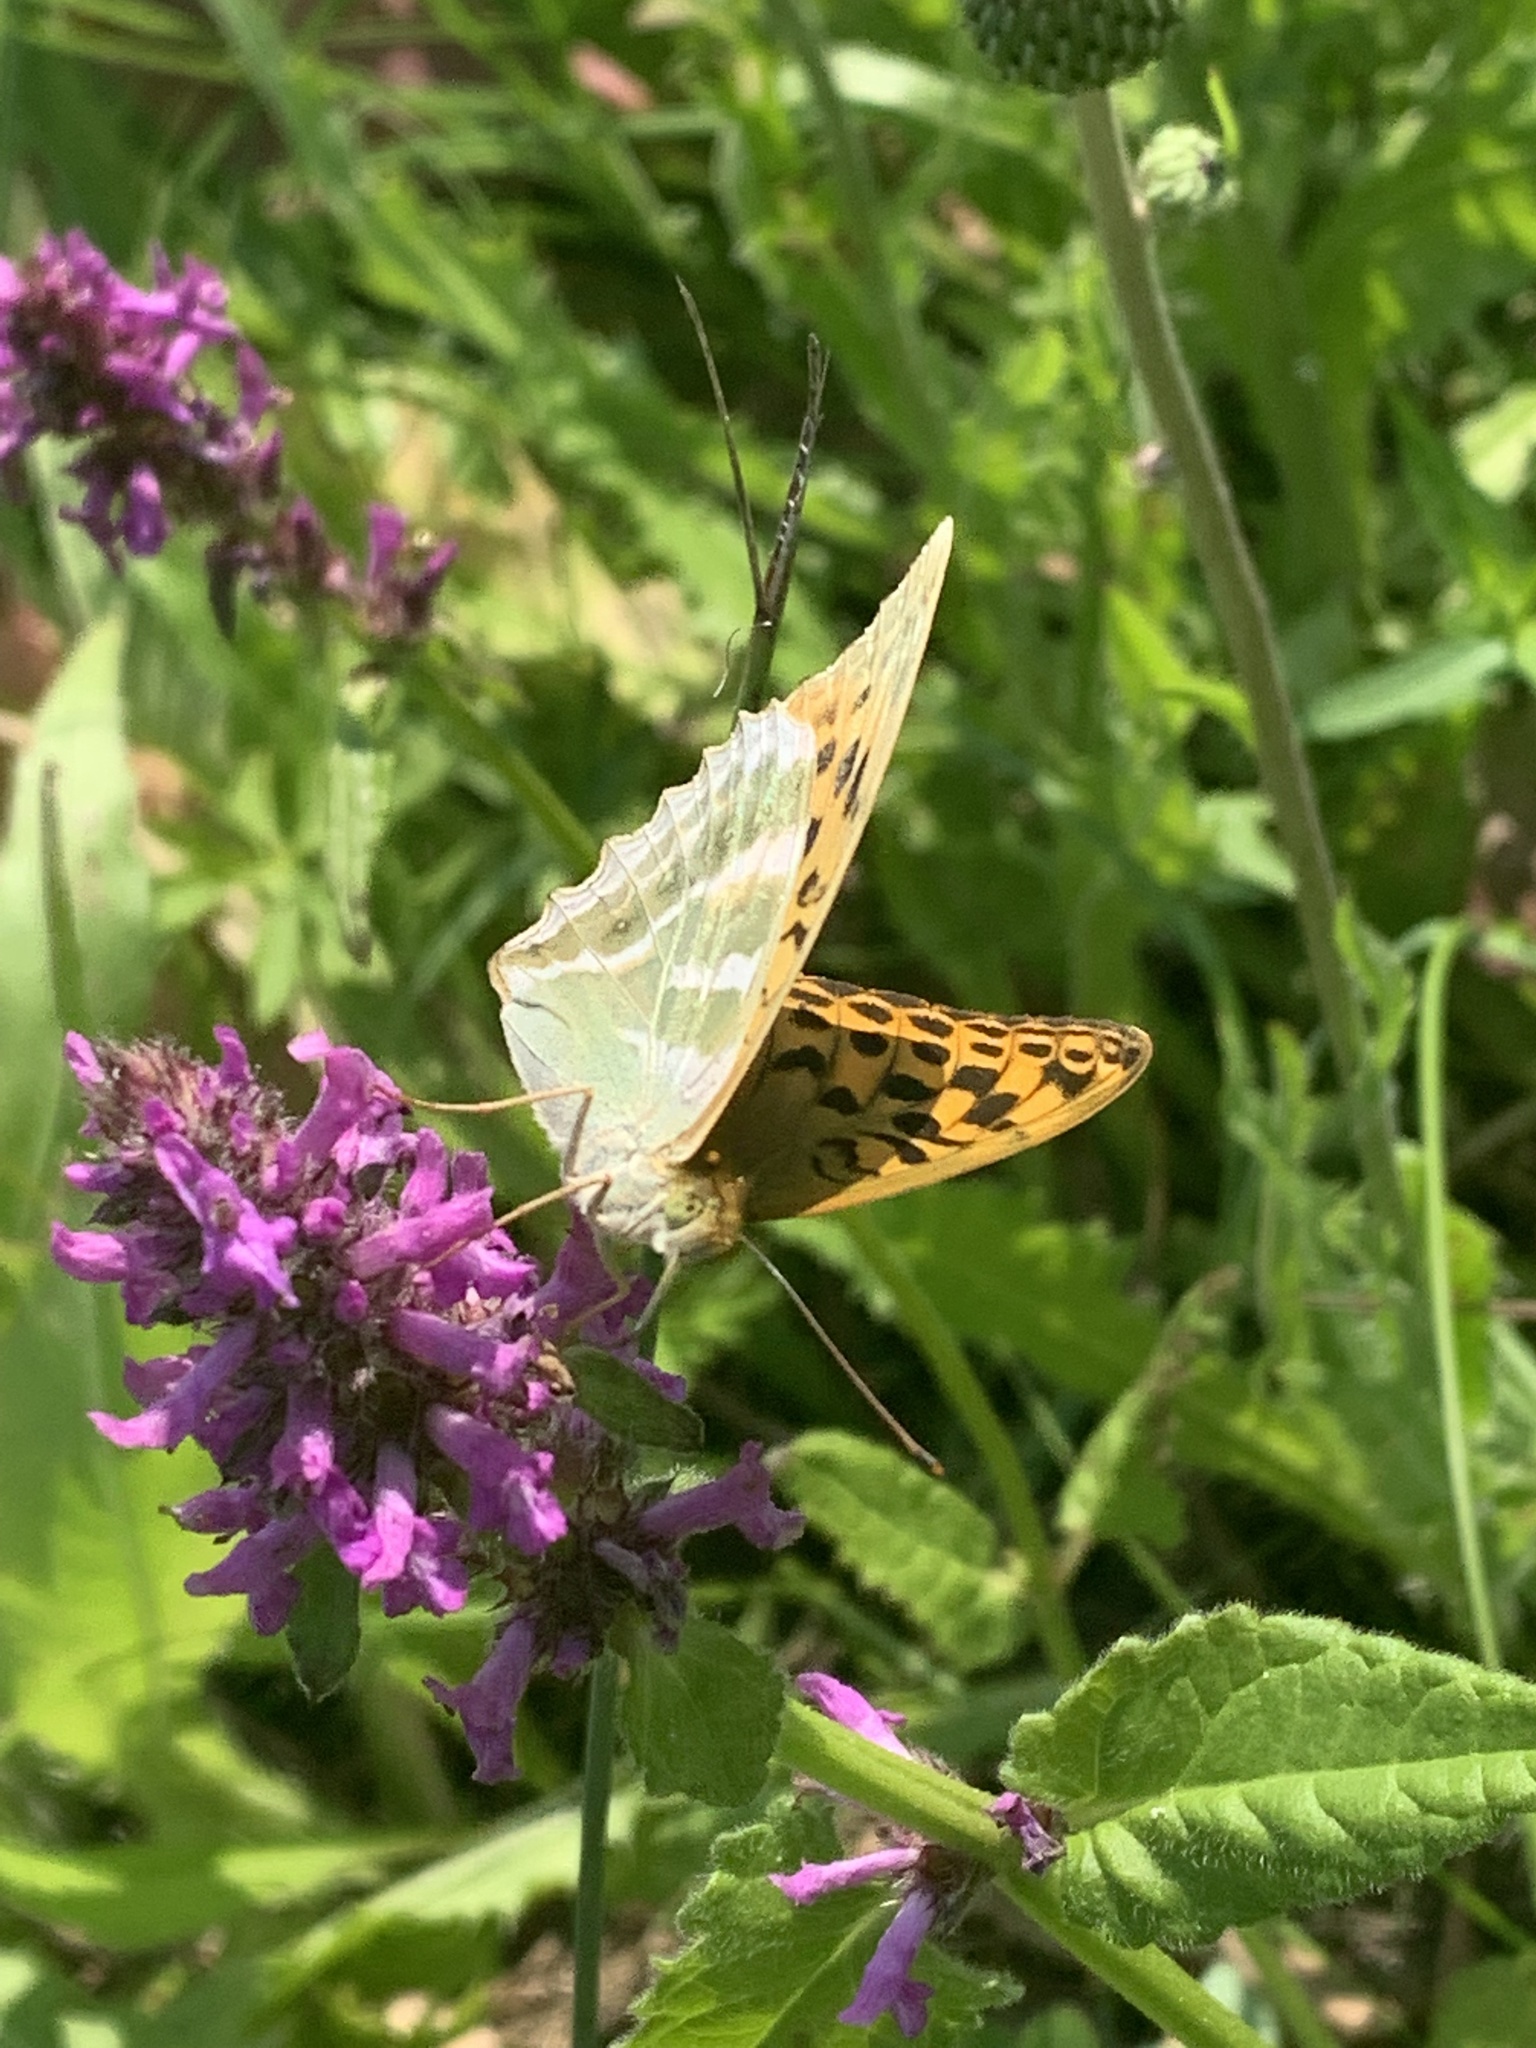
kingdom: Animalia
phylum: Arthropoda
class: Insecta
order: Lepidoptera
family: Nymphalidae
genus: Argynnis
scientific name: Argynnis paphia
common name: Silver-washed fritillary
